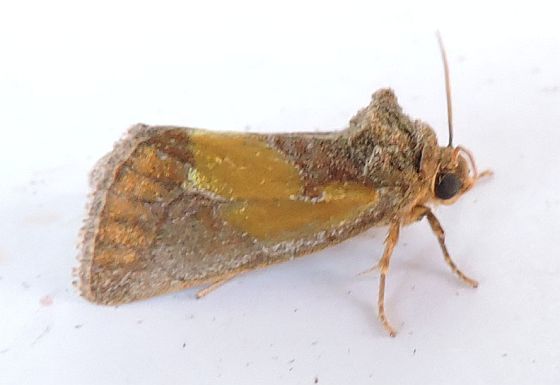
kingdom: Animalia
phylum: Arthropoda
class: Insecta
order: Lepidoptera
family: Noctuidae
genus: Chalcopasta
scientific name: Chalcopasta acema
